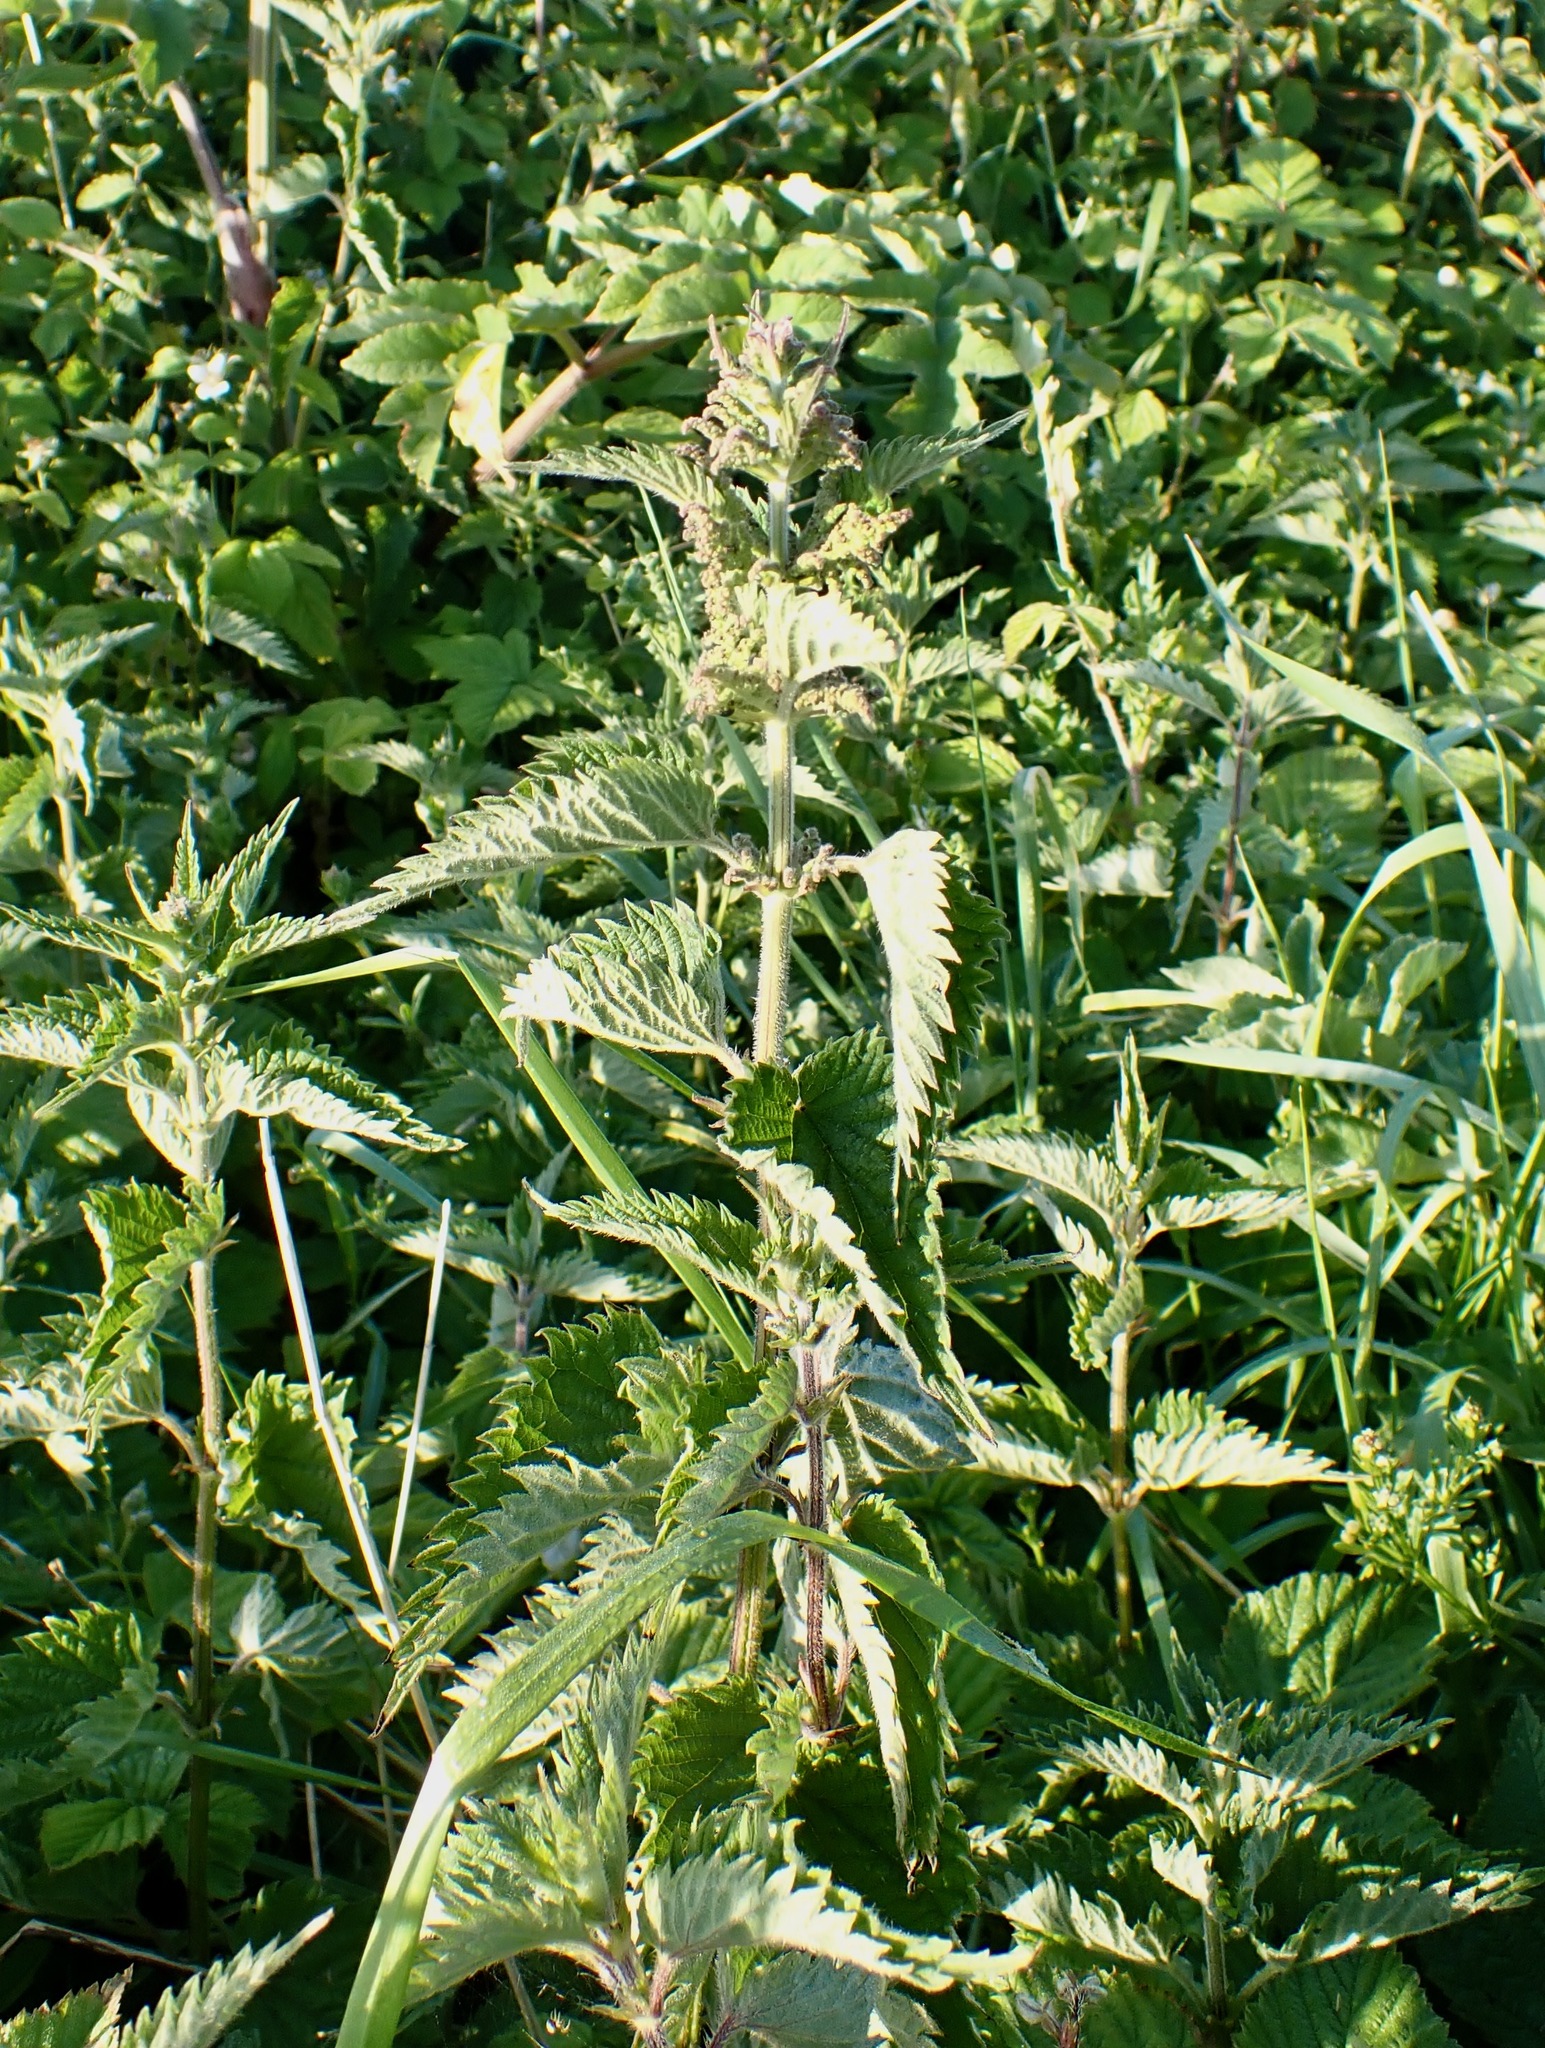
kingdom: Plantae
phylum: Tracheophyta
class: Magnoliopsida
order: Rosales
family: Urticaceae
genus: Urtica
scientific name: Urtica dioica
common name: Common nettle
